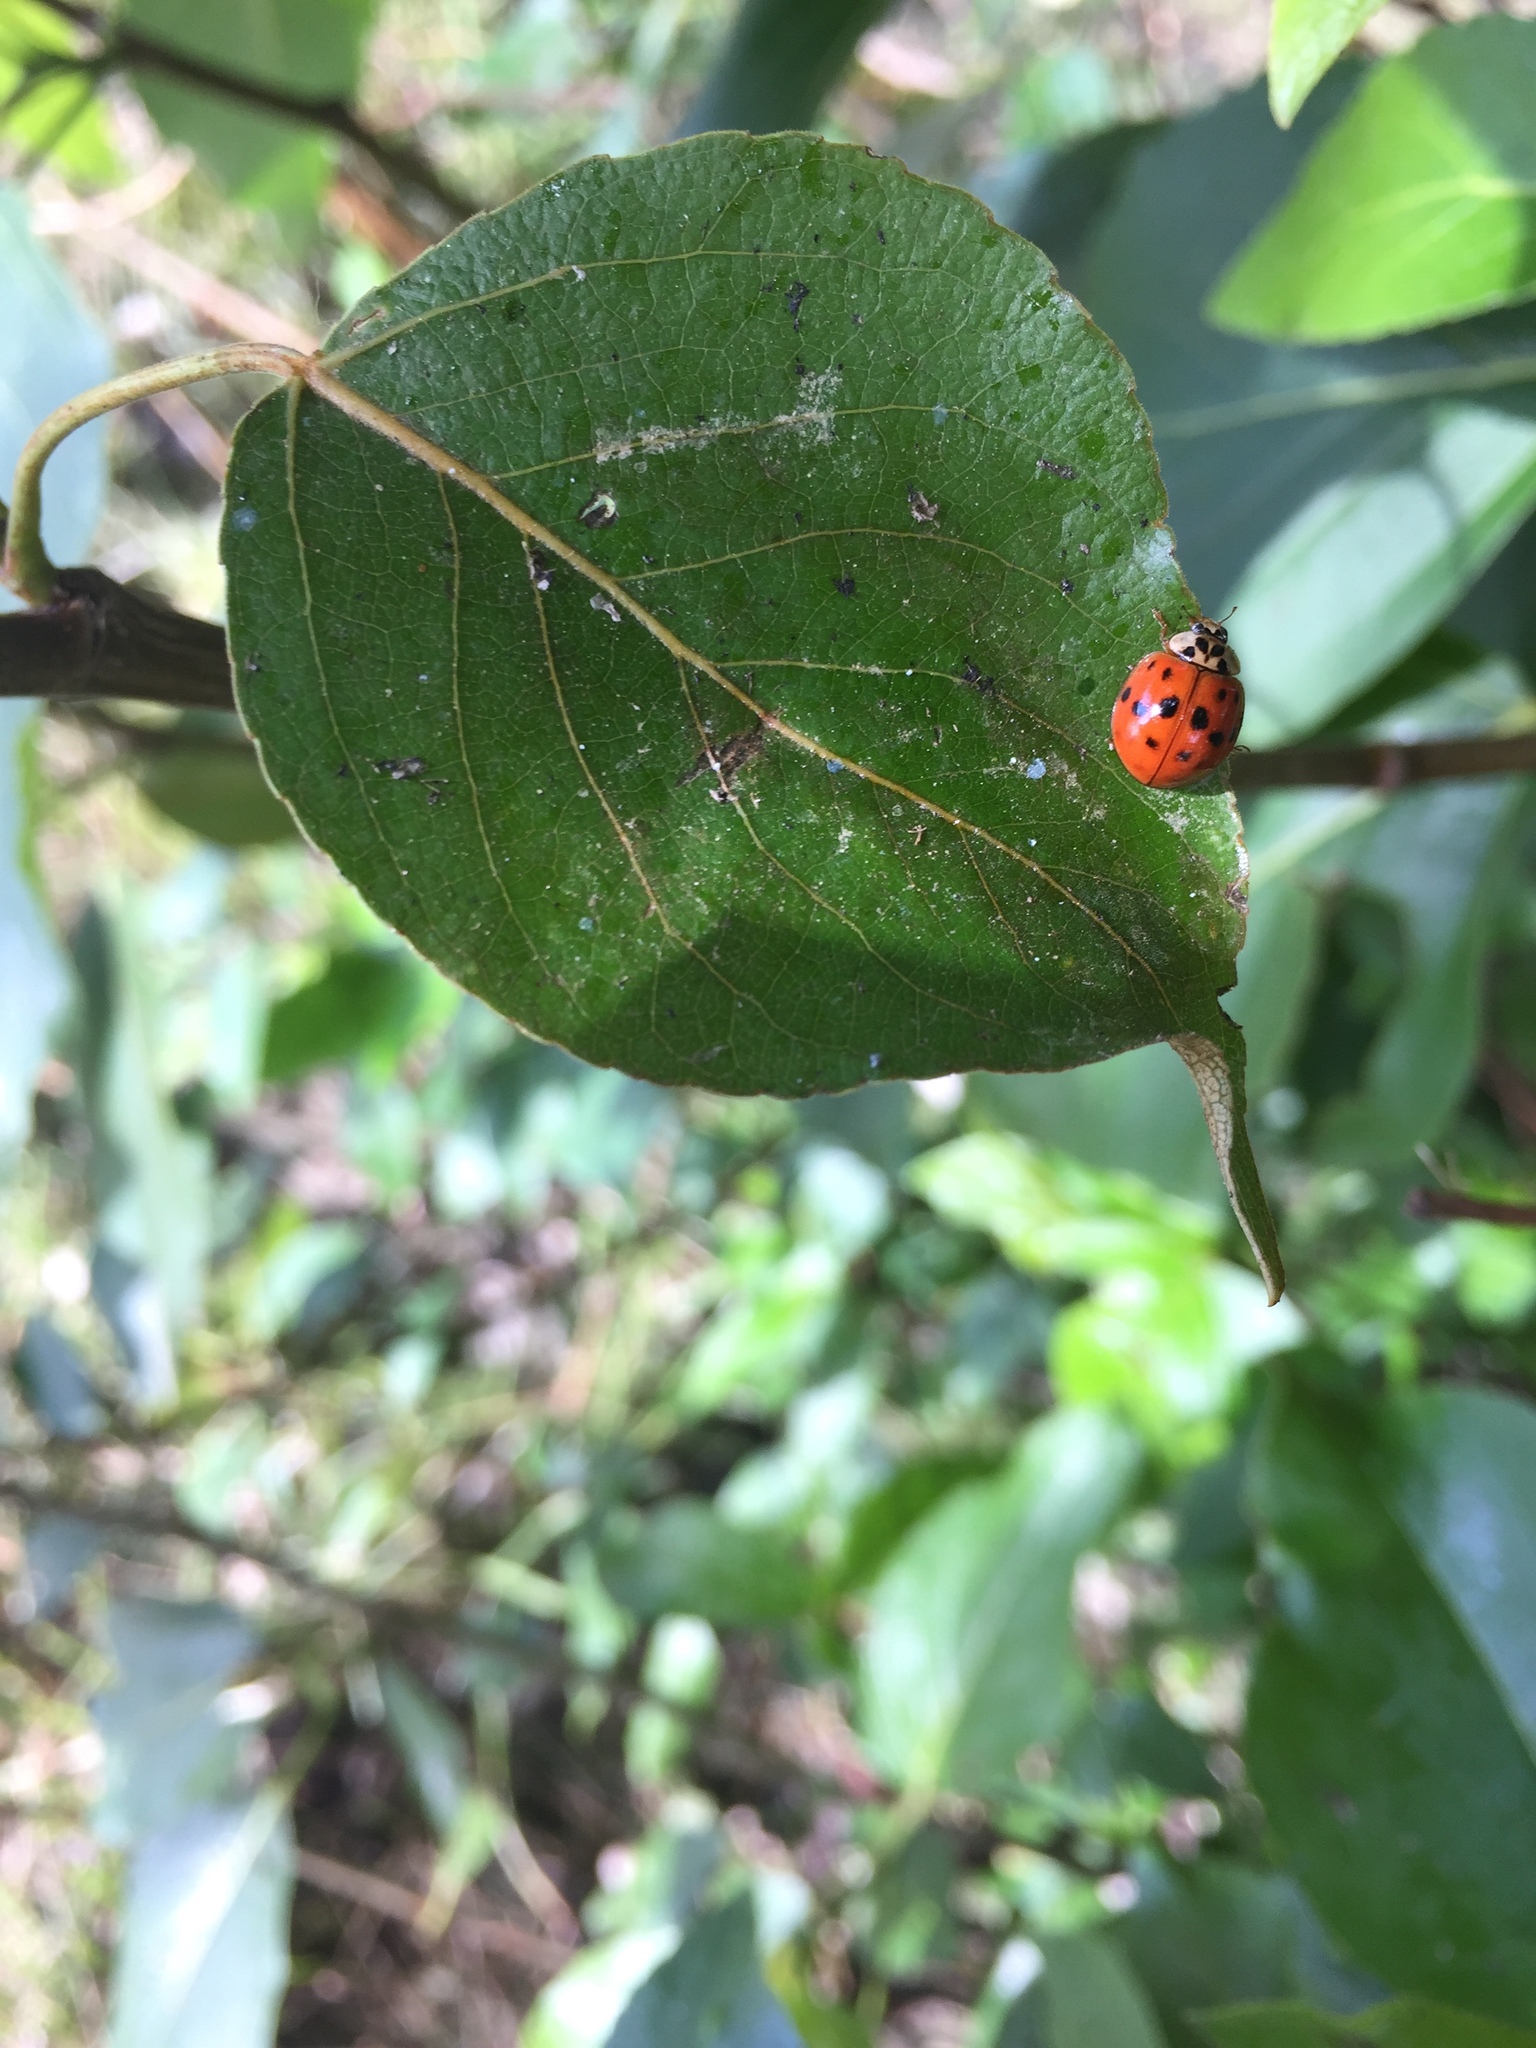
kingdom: Animalia
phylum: Arthropoda
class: Insecta
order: Coleoptera
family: Coccinellidae
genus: Harmonia
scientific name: Harmonia axyridis
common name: Harlequin ladybird
